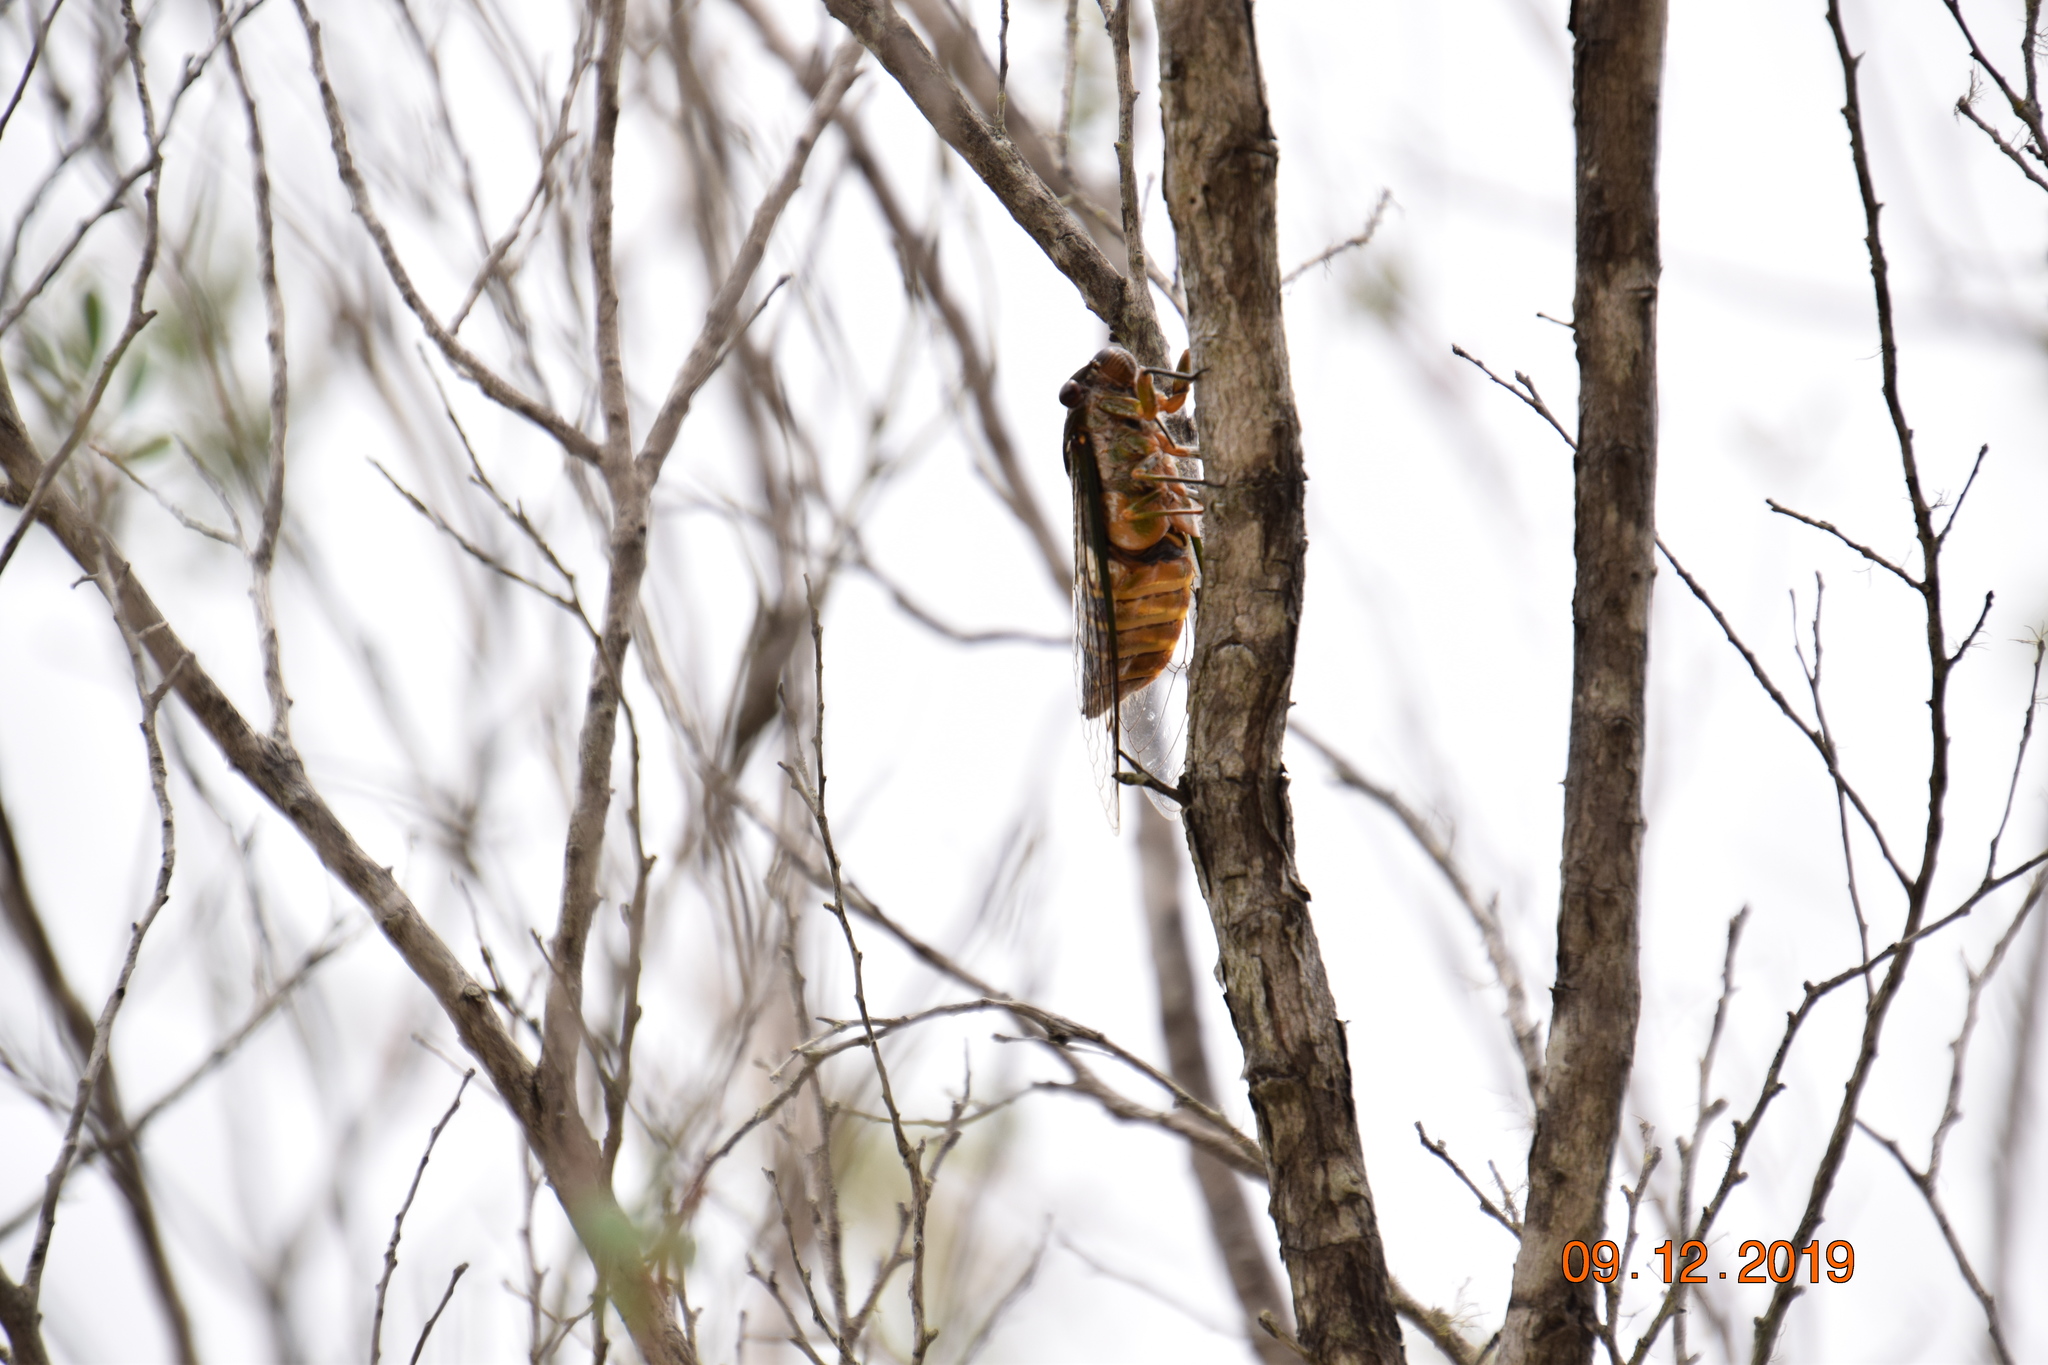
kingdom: Animalia
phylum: Arthropoda
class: Insecta
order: Hemiptera
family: Cicadidae
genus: Psaltoda
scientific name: Psaltoda plaga
